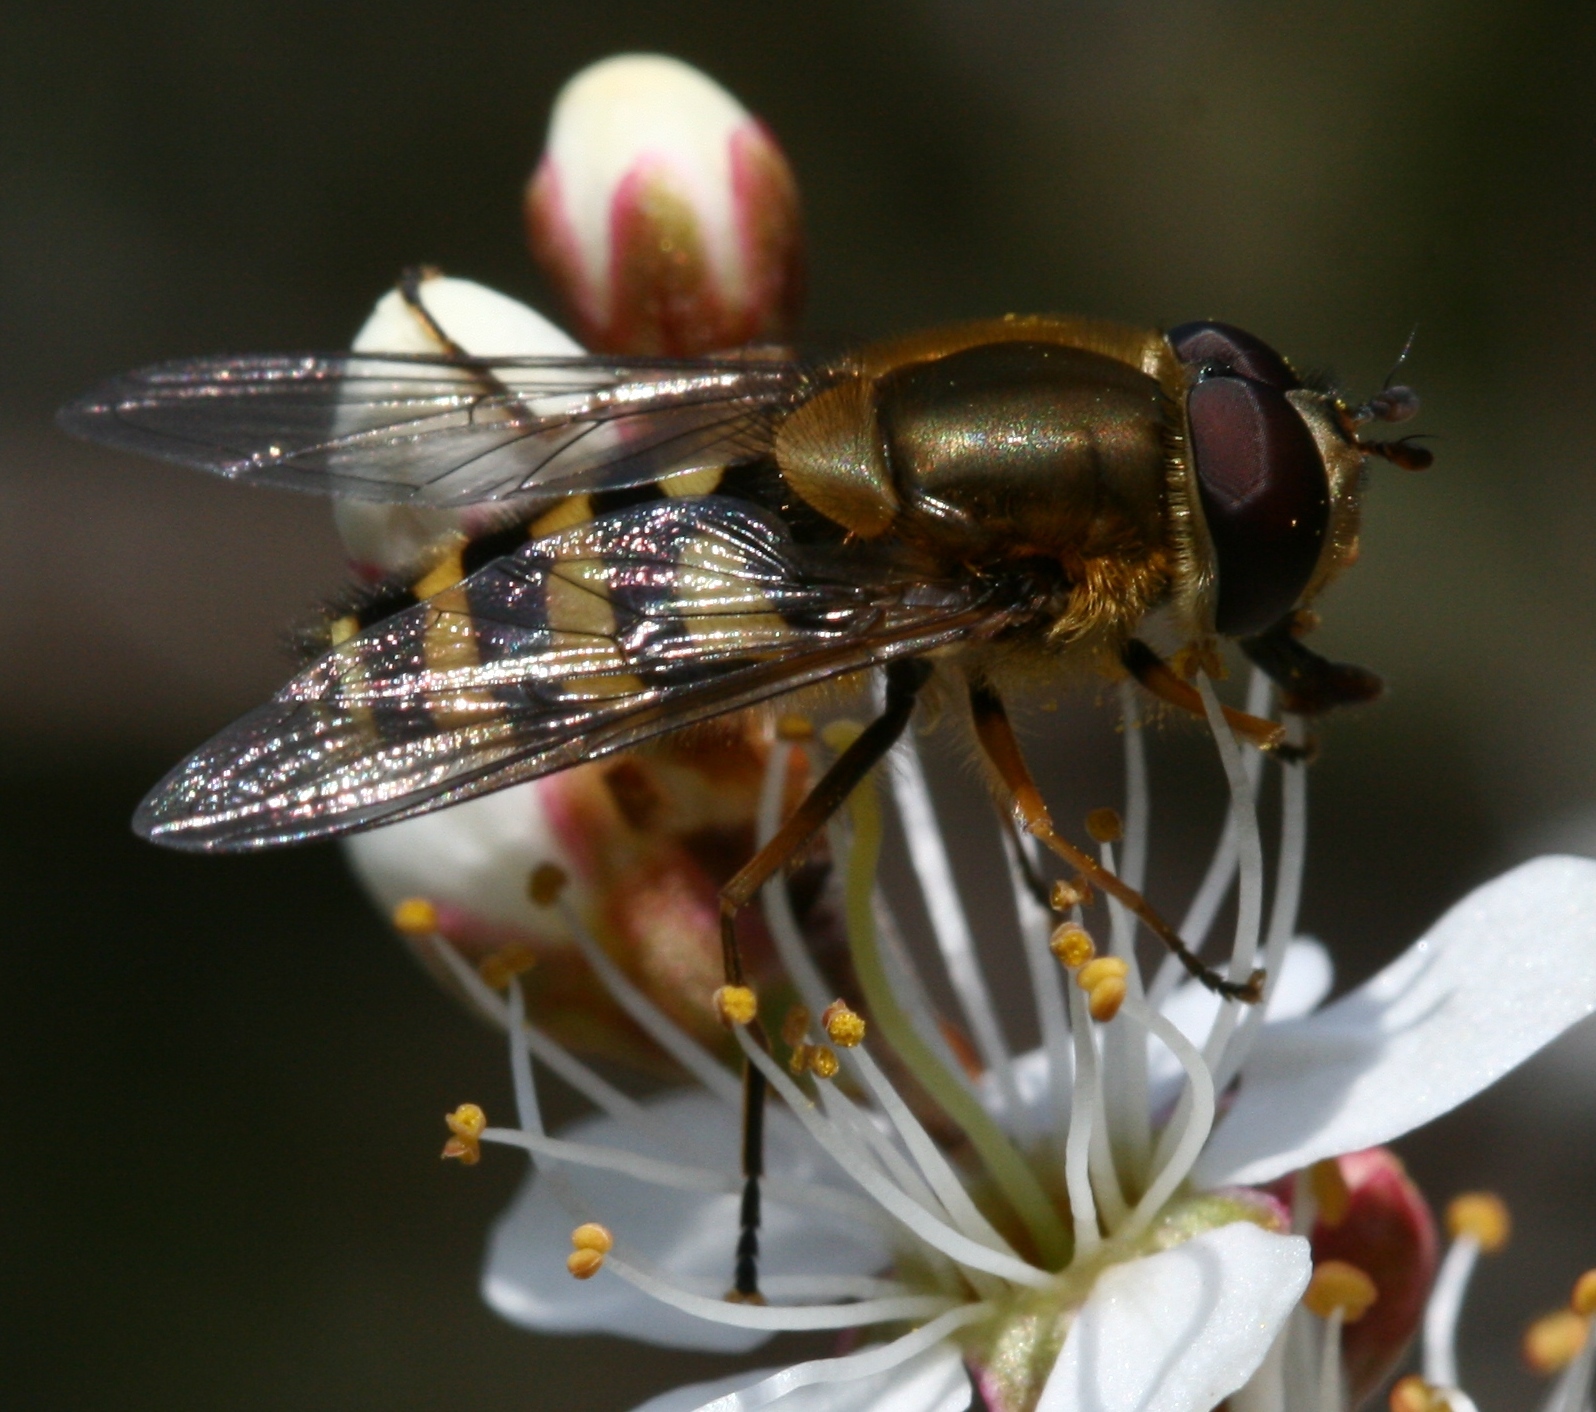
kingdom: Animalia
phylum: Arthropoda
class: Insecta
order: Diptera
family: Syrphidae
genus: Syrphus
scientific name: Syrphus
